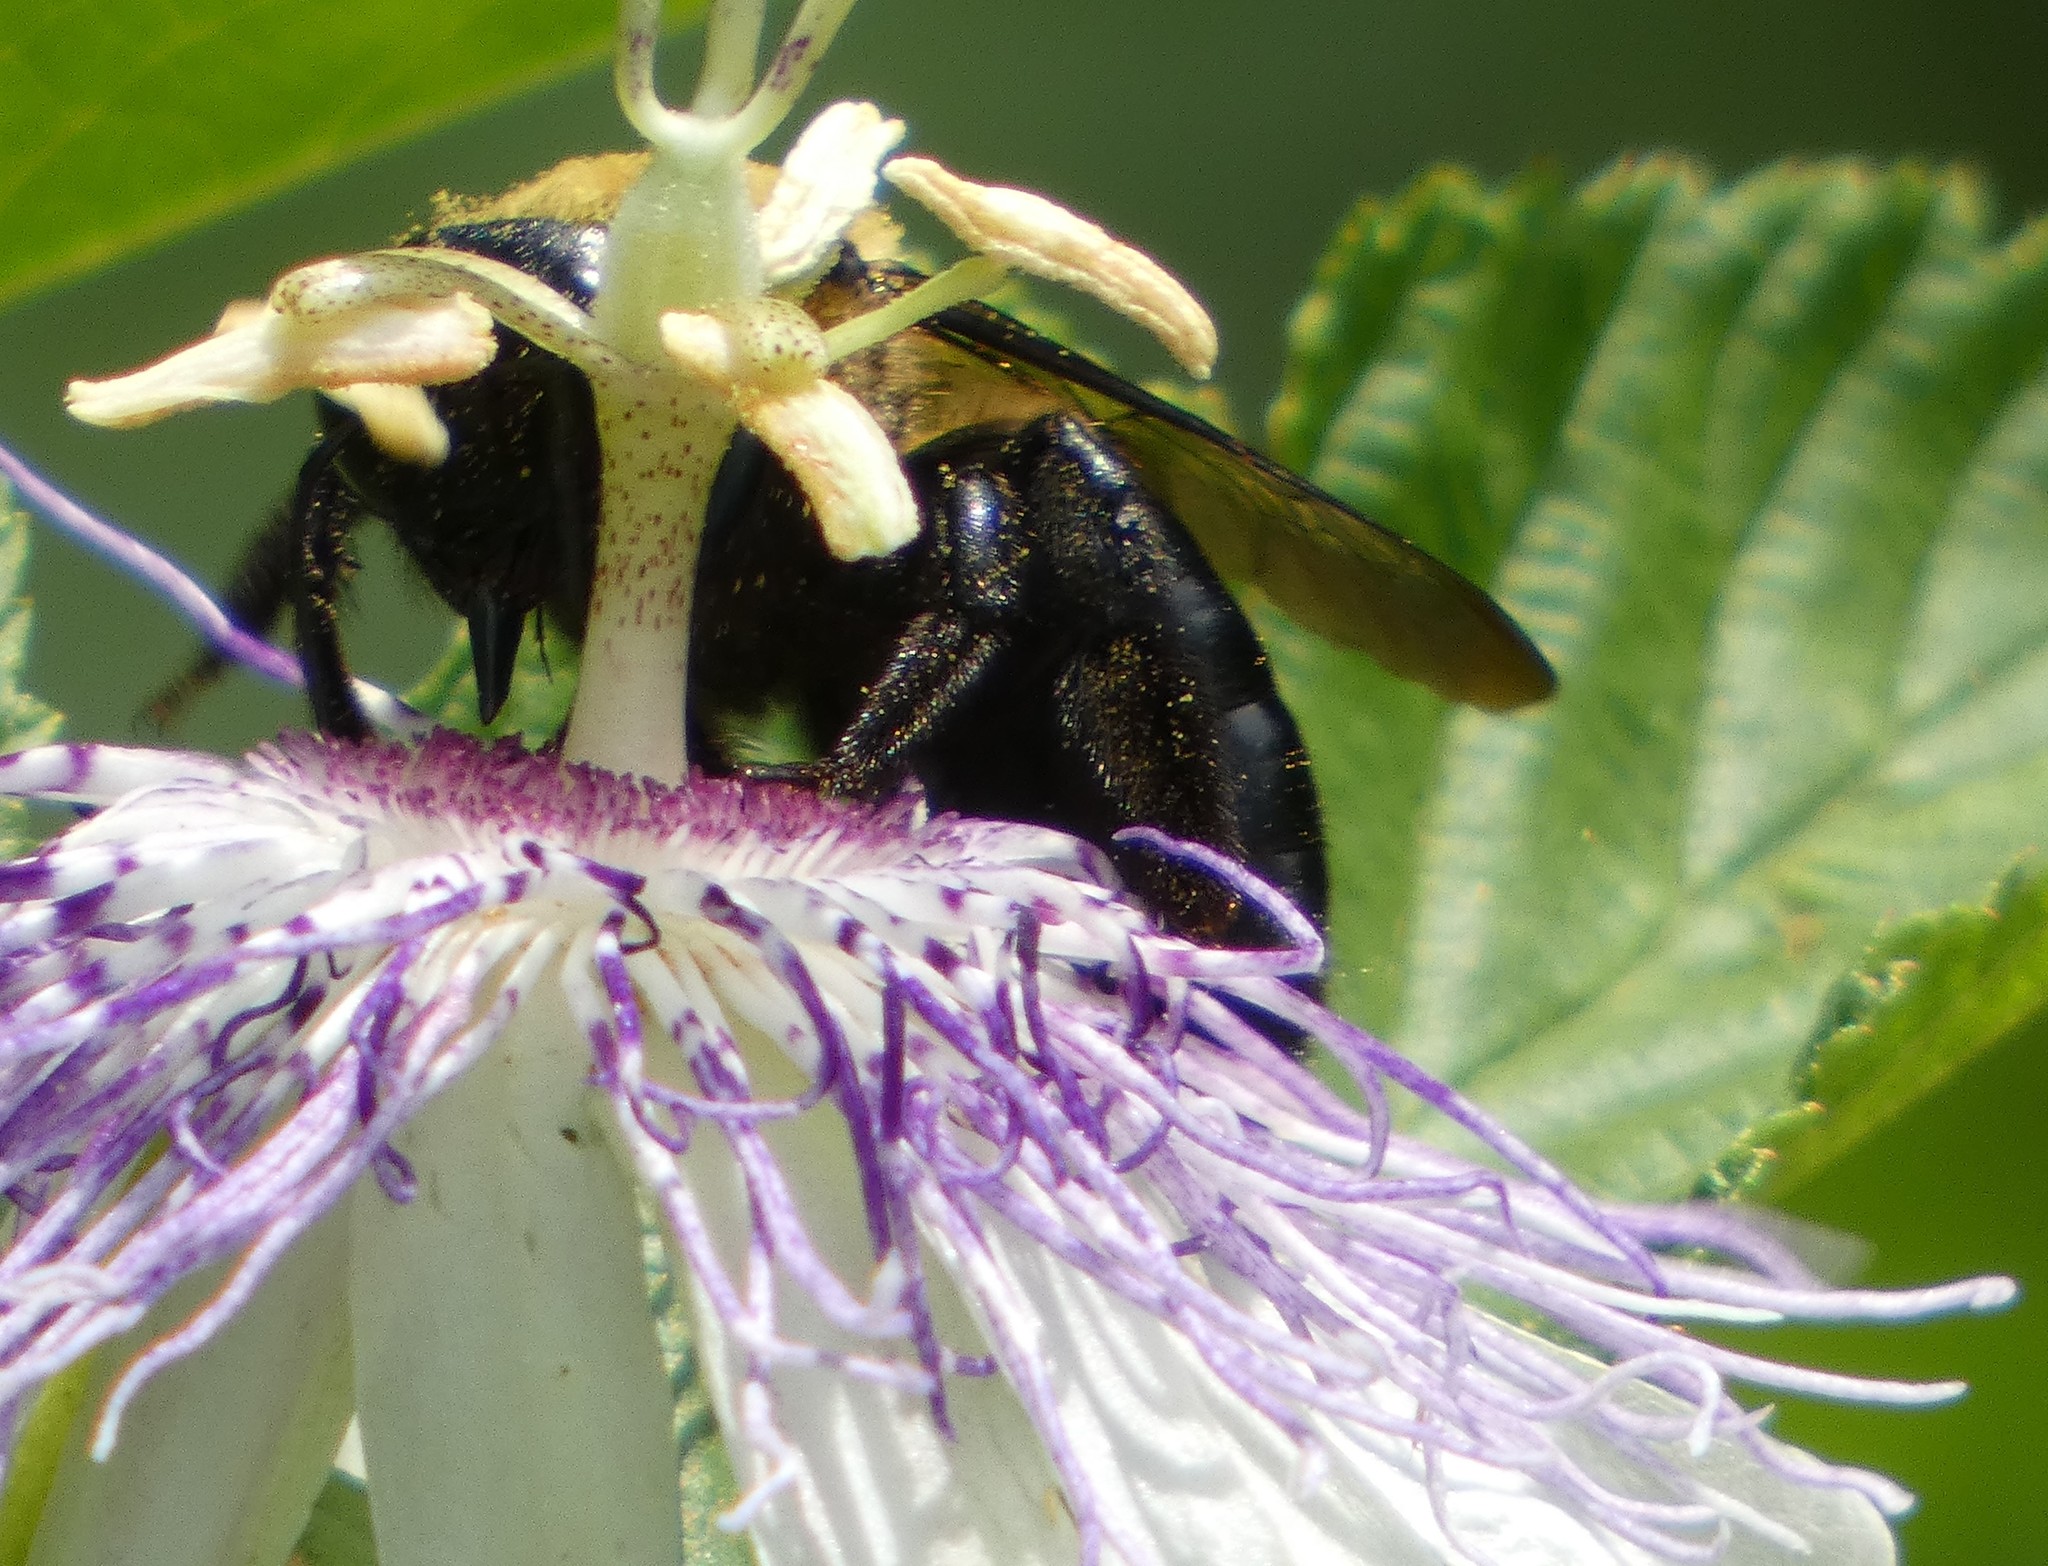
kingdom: Animalia
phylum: Arthropoda
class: Insecta
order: Hymenoptera
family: Apidae
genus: Xylocopa
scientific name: Xylocopa virginica
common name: Carpenter bee
